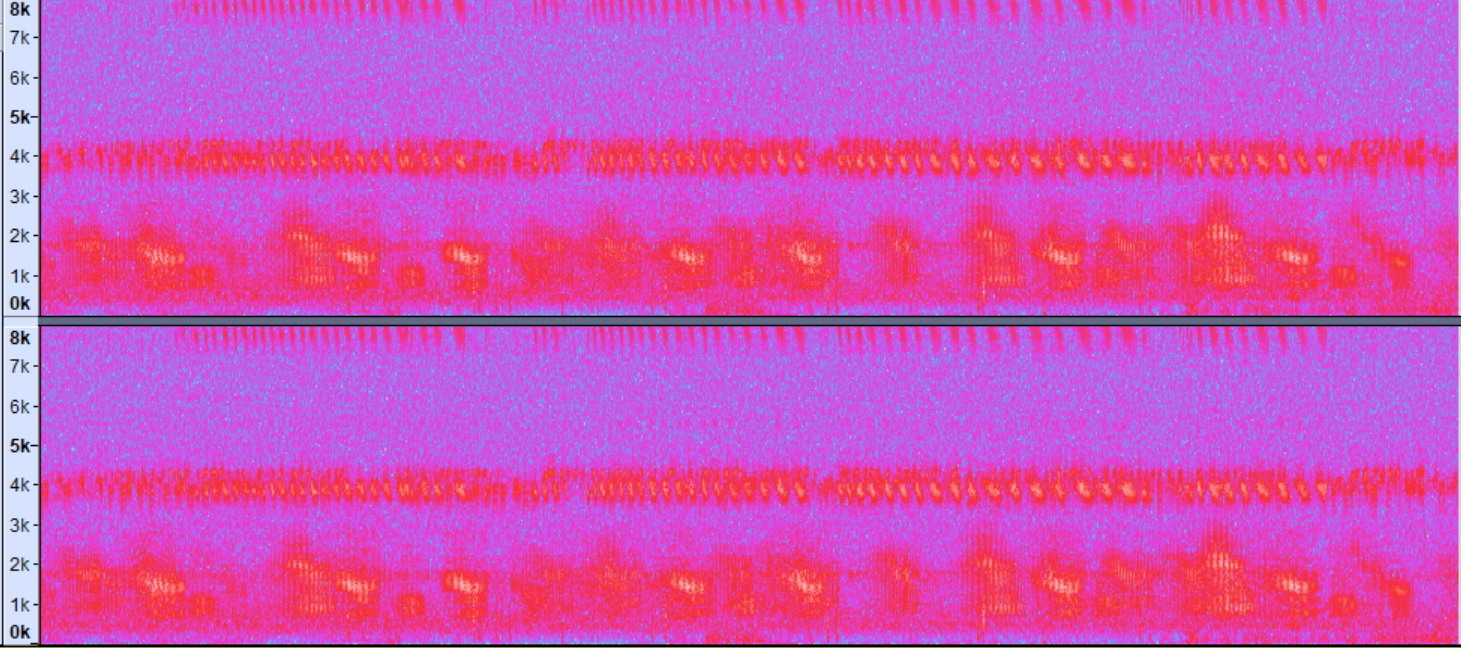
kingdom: Animalia
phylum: Chordata
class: Amphibia
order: Anura
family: Ranidae
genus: Lithobates
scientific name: Lithobates palustris
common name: Pickerel frog
